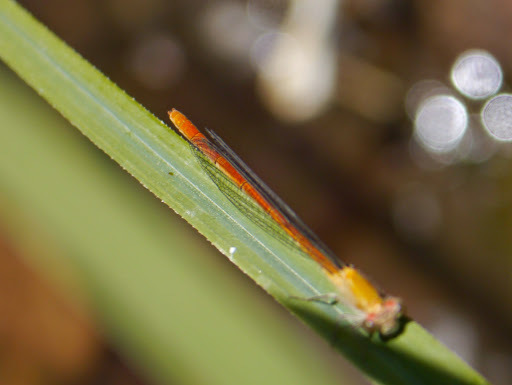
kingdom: Animalia
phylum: Arthropoda
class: Insecta
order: Odonata
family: Coenagrionidae
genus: Hesperagrion
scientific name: Hesperagrion heterodoxum
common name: Painted damsel
